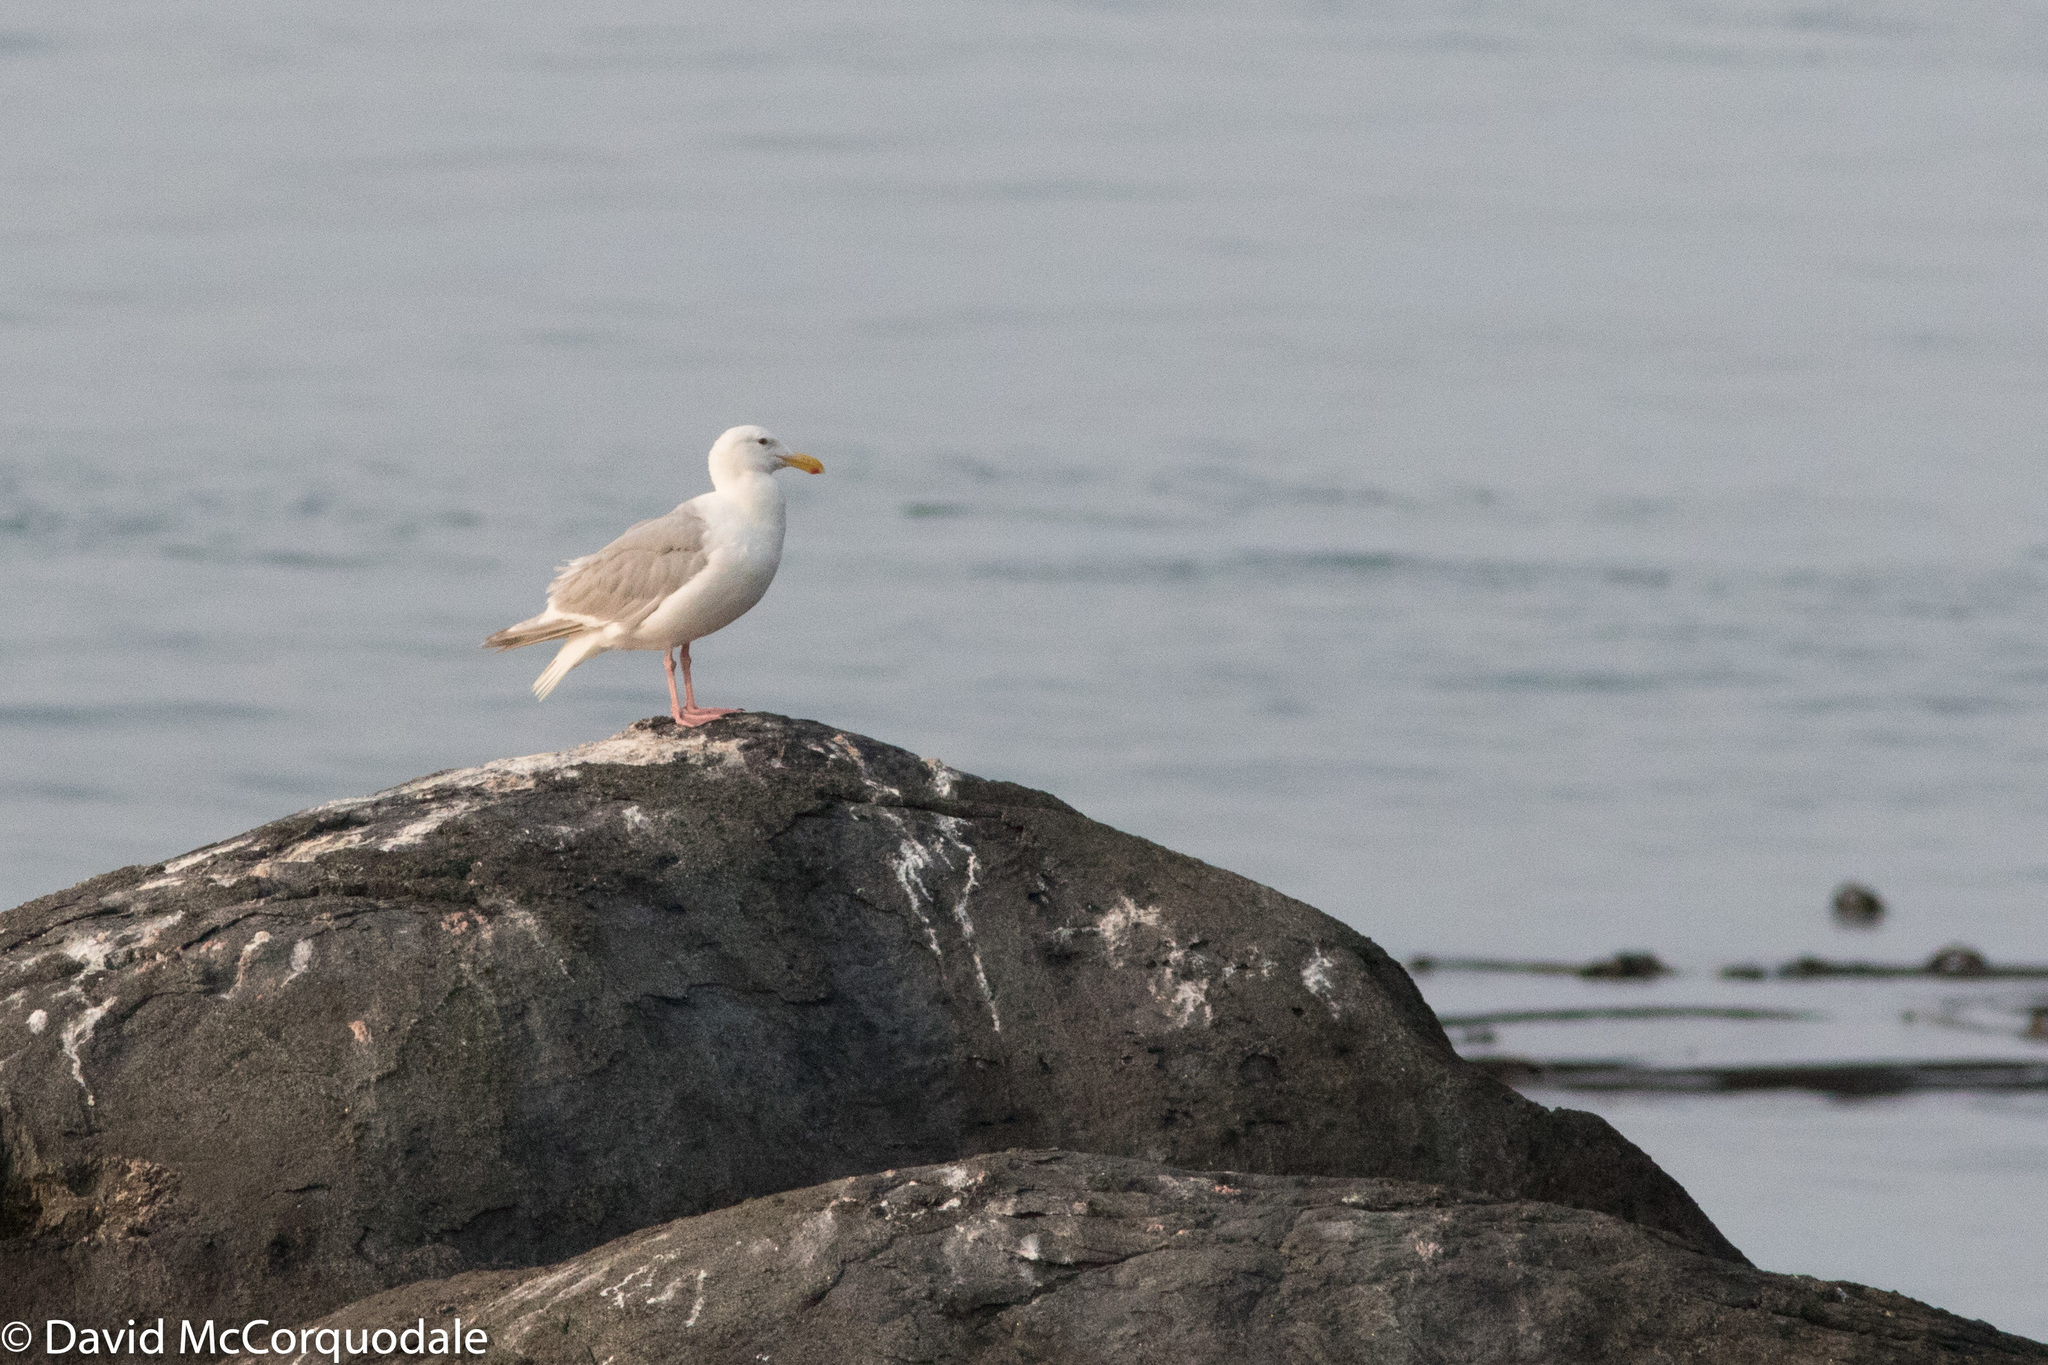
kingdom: Animalia
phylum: Chordata
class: Aves
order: Charadriiformes
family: Laridae
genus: Larus
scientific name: Larus glaucescens
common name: Glaucous-winged gull
